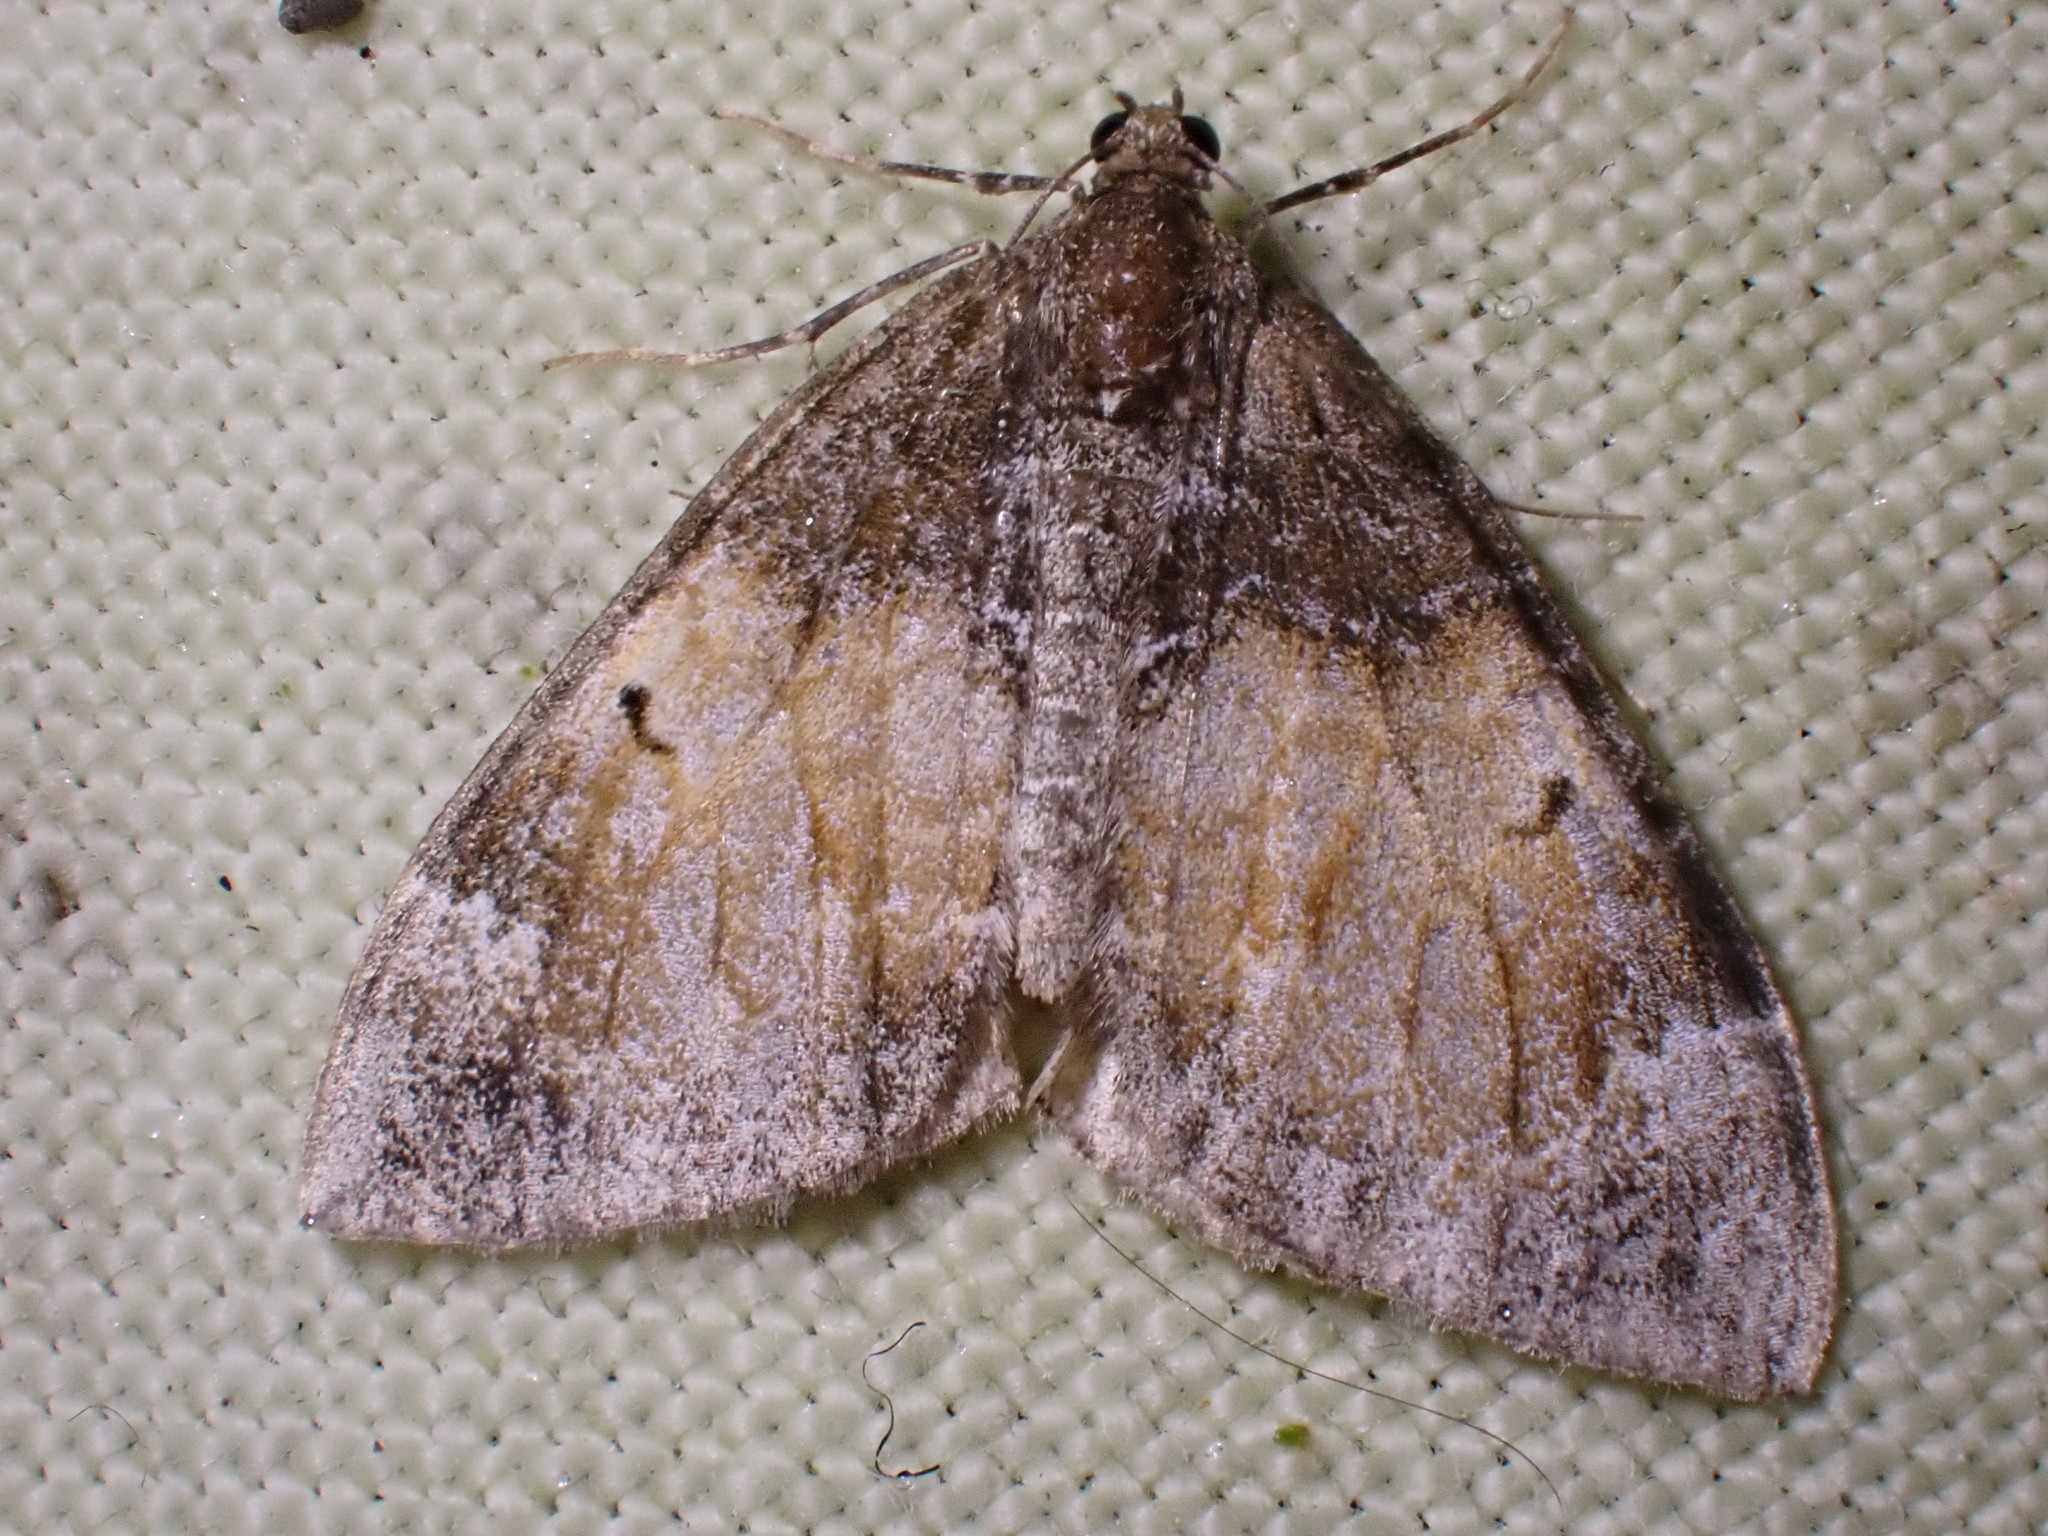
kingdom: Animalia
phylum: Arthropoda
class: Insecta
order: Lepidoptera
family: Geometridae
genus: Dysstroma
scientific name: Dysstroma truncata
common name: Common marbled carpet
